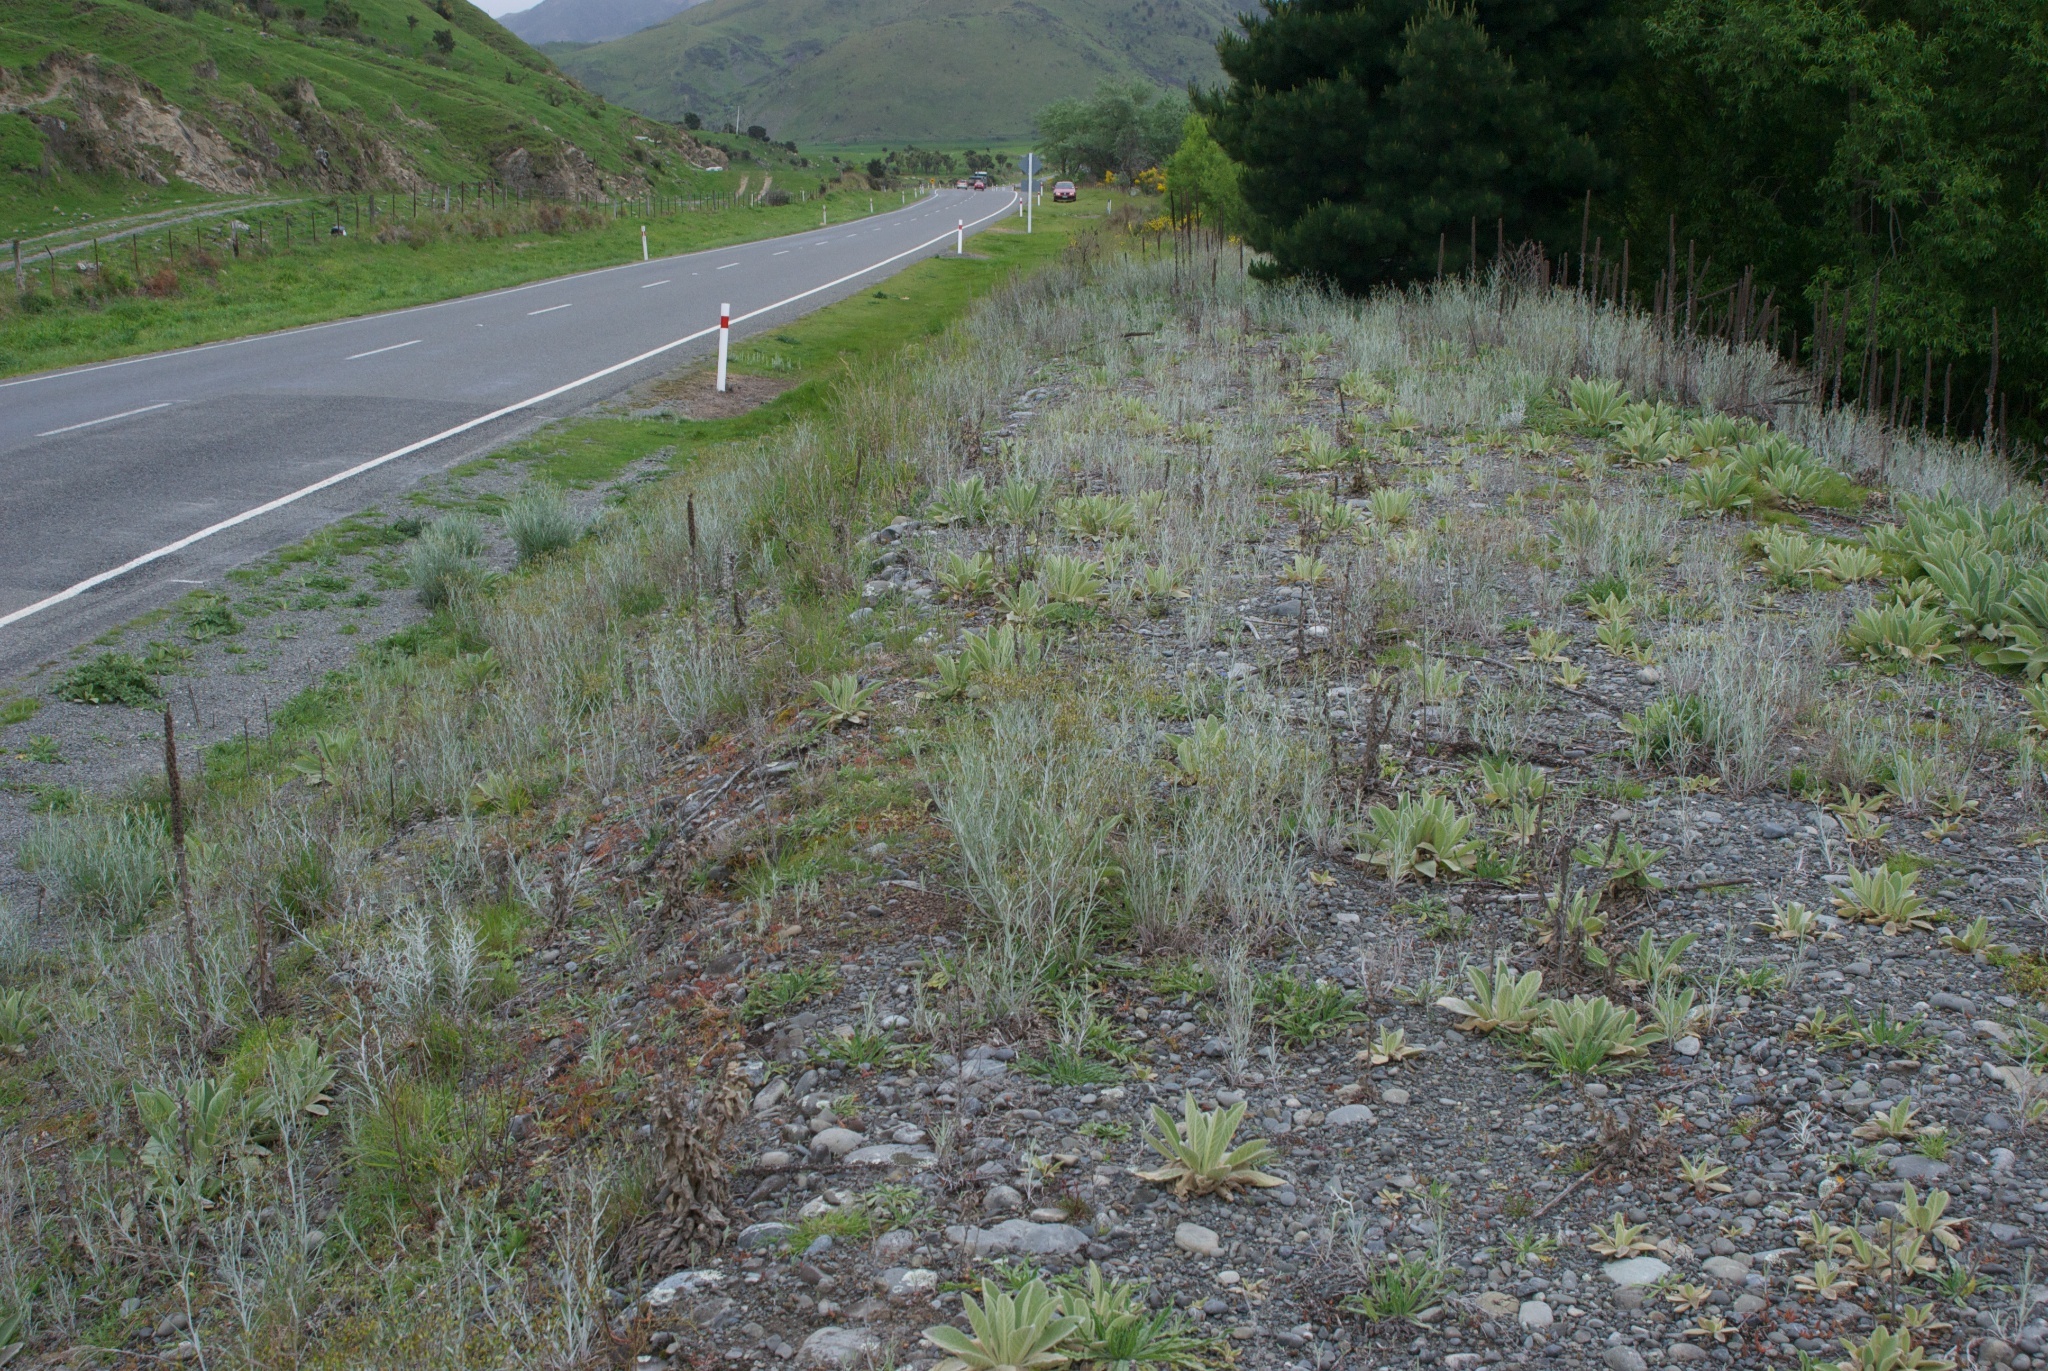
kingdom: Plantae
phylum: Tracheophyta
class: Magnoliopsida
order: Lamiales
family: Scrophulariaceae
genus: Verbascum
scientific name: Verbascum thapsus
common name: Common mullein
